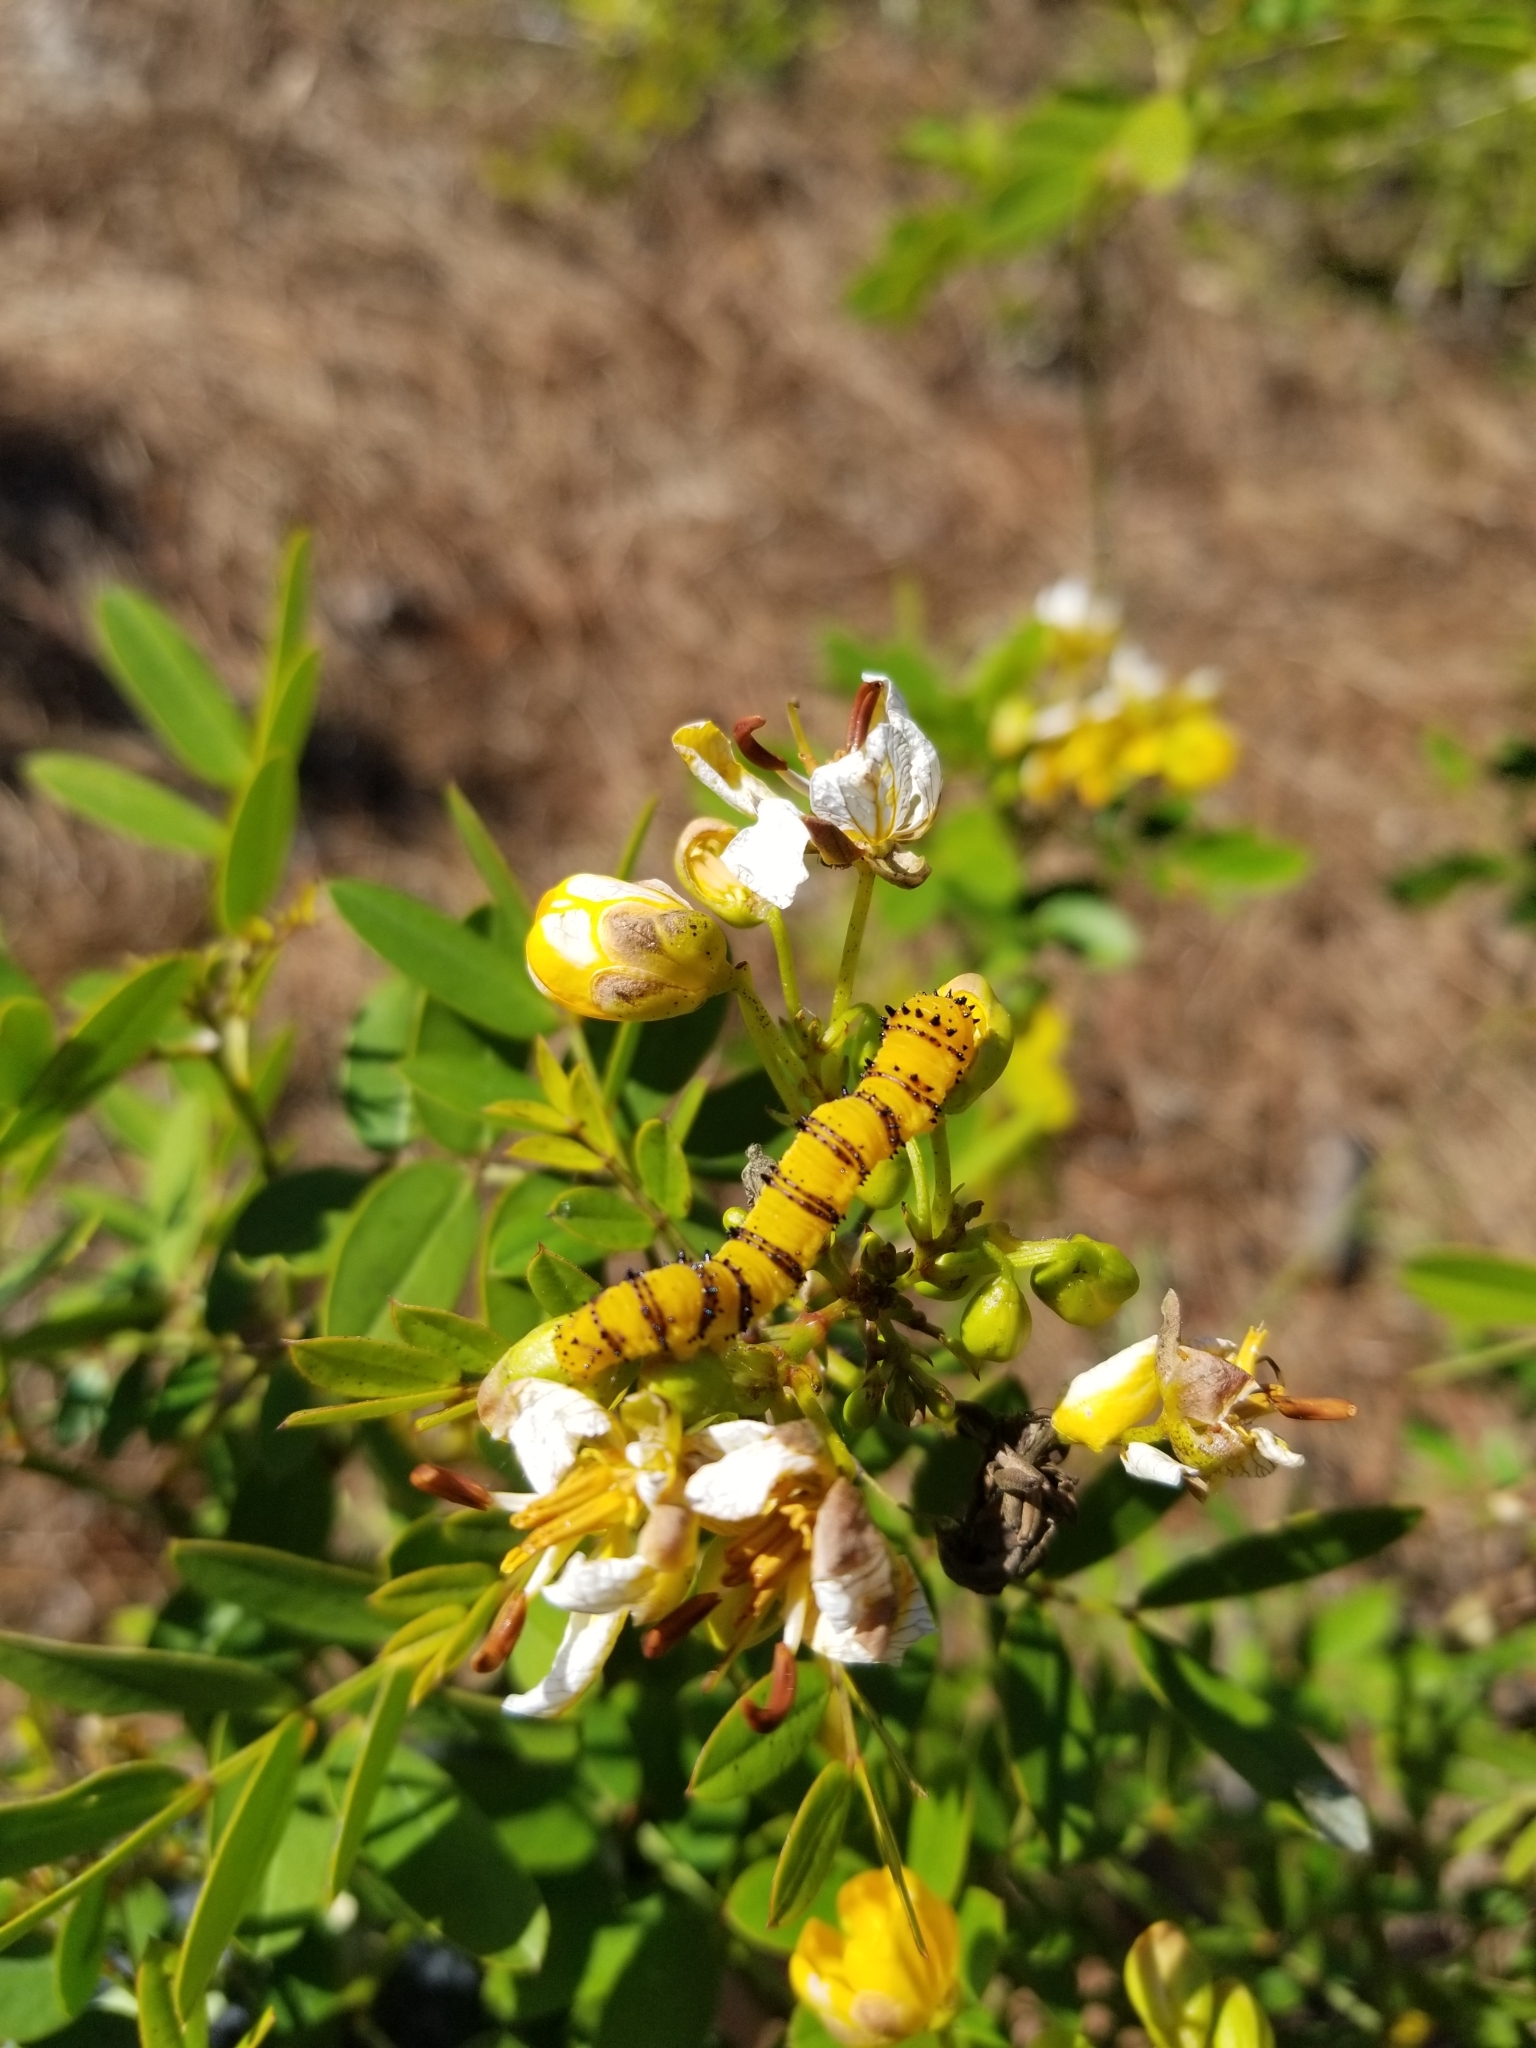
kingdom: Animalia
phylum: Arthropoda
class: Insecta
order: Lepidoptera
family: Pieridae
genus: Phoebis
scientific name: Phoebis philea
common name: Orange-barred giant sulphur
